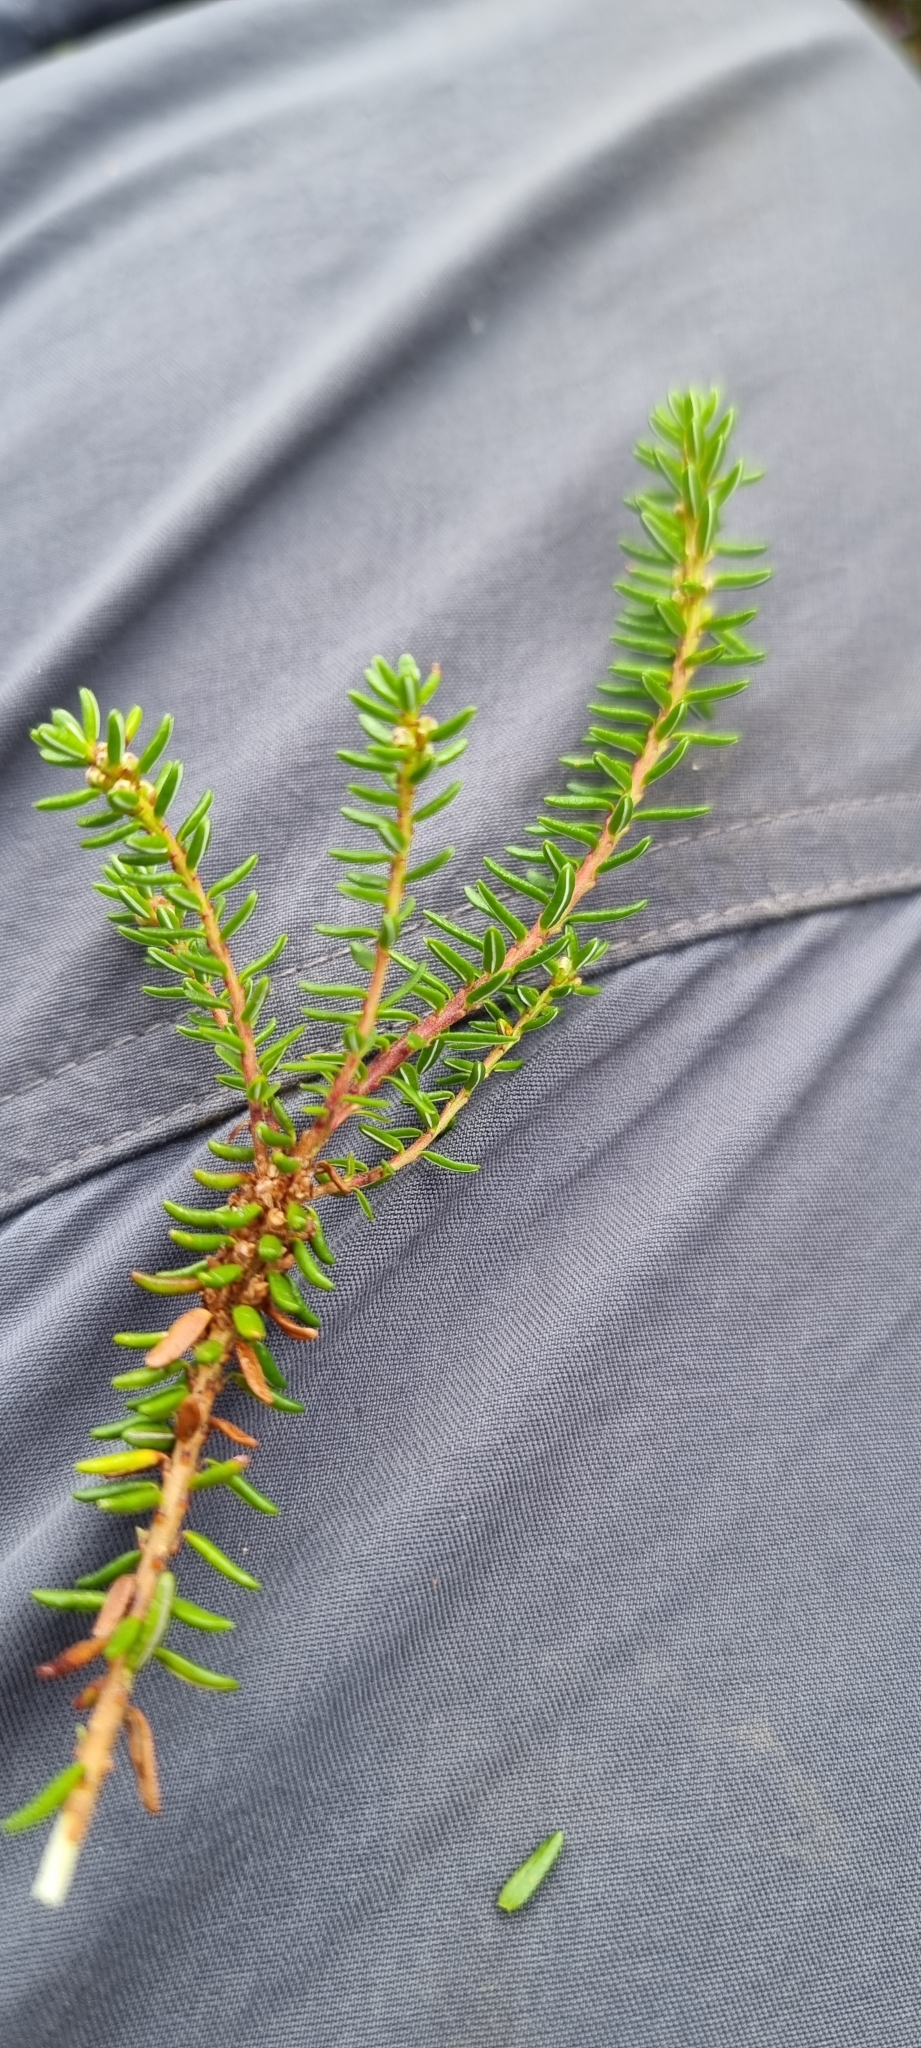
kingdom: Plantae
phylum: Tracheophyta
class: Magnoliopsida
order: Ericales
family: Ericaceae
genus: Empetrum
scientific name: Empetrum nigrum
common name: Black crowberry
